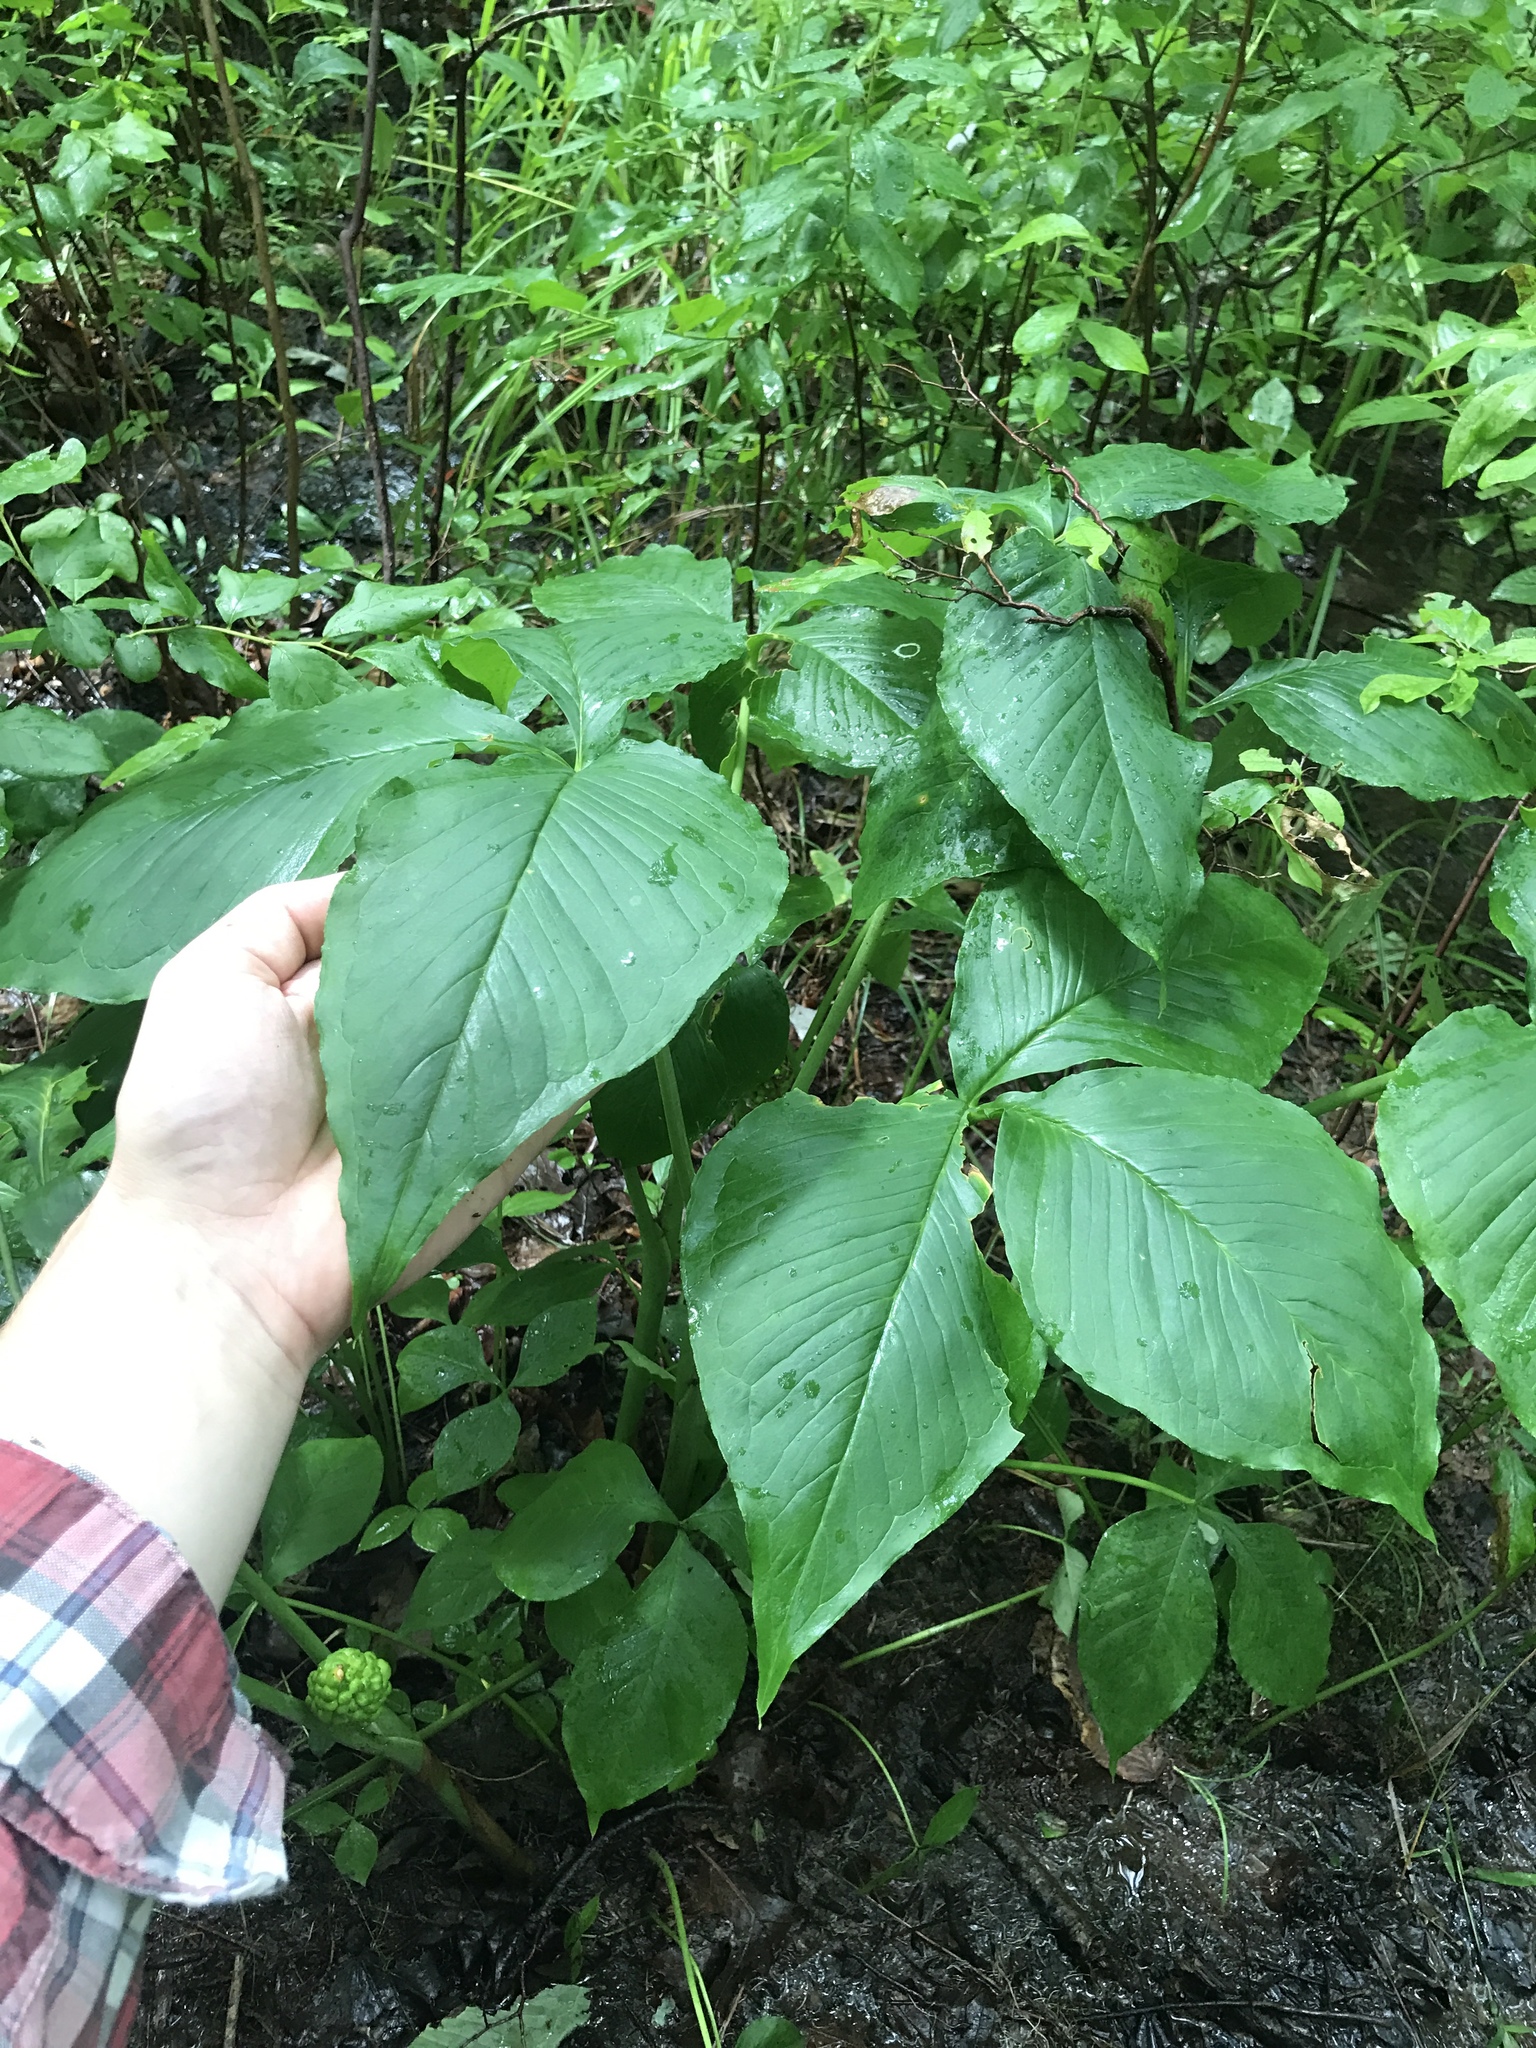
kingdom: Plantae
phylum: Tracheophyta
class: Liliopsida
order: Alismatales
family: Araceae
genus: Arisaema
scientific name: Arisaema triphyllum
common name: Jack-in-the-pulpit
